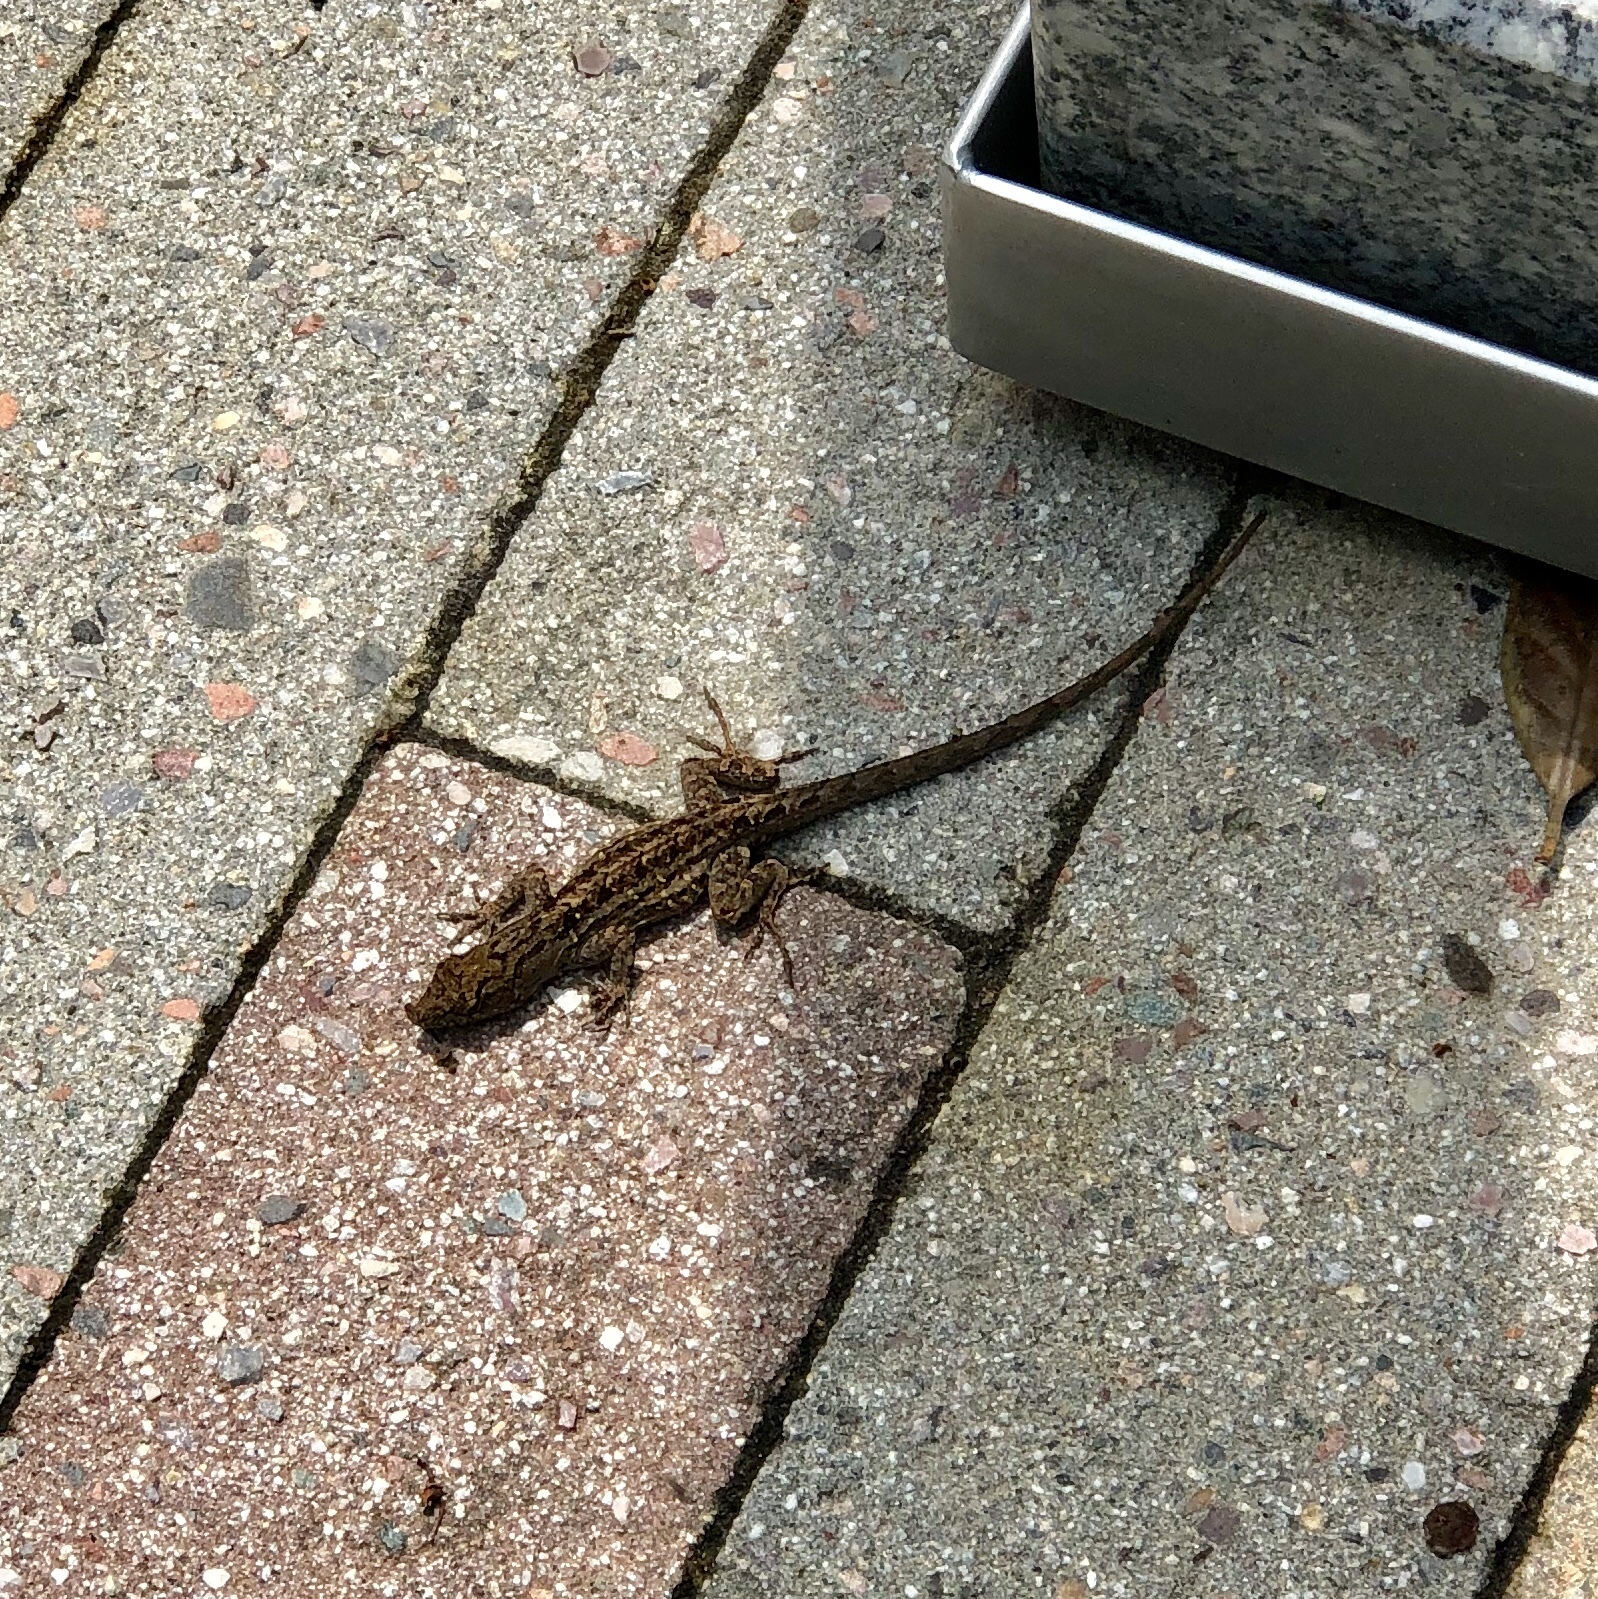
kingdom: Animalia
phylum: Chordata
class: Squamata
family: Dactyloidae
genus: Anolis
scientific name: Anolis sagrei
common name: Brown anole
